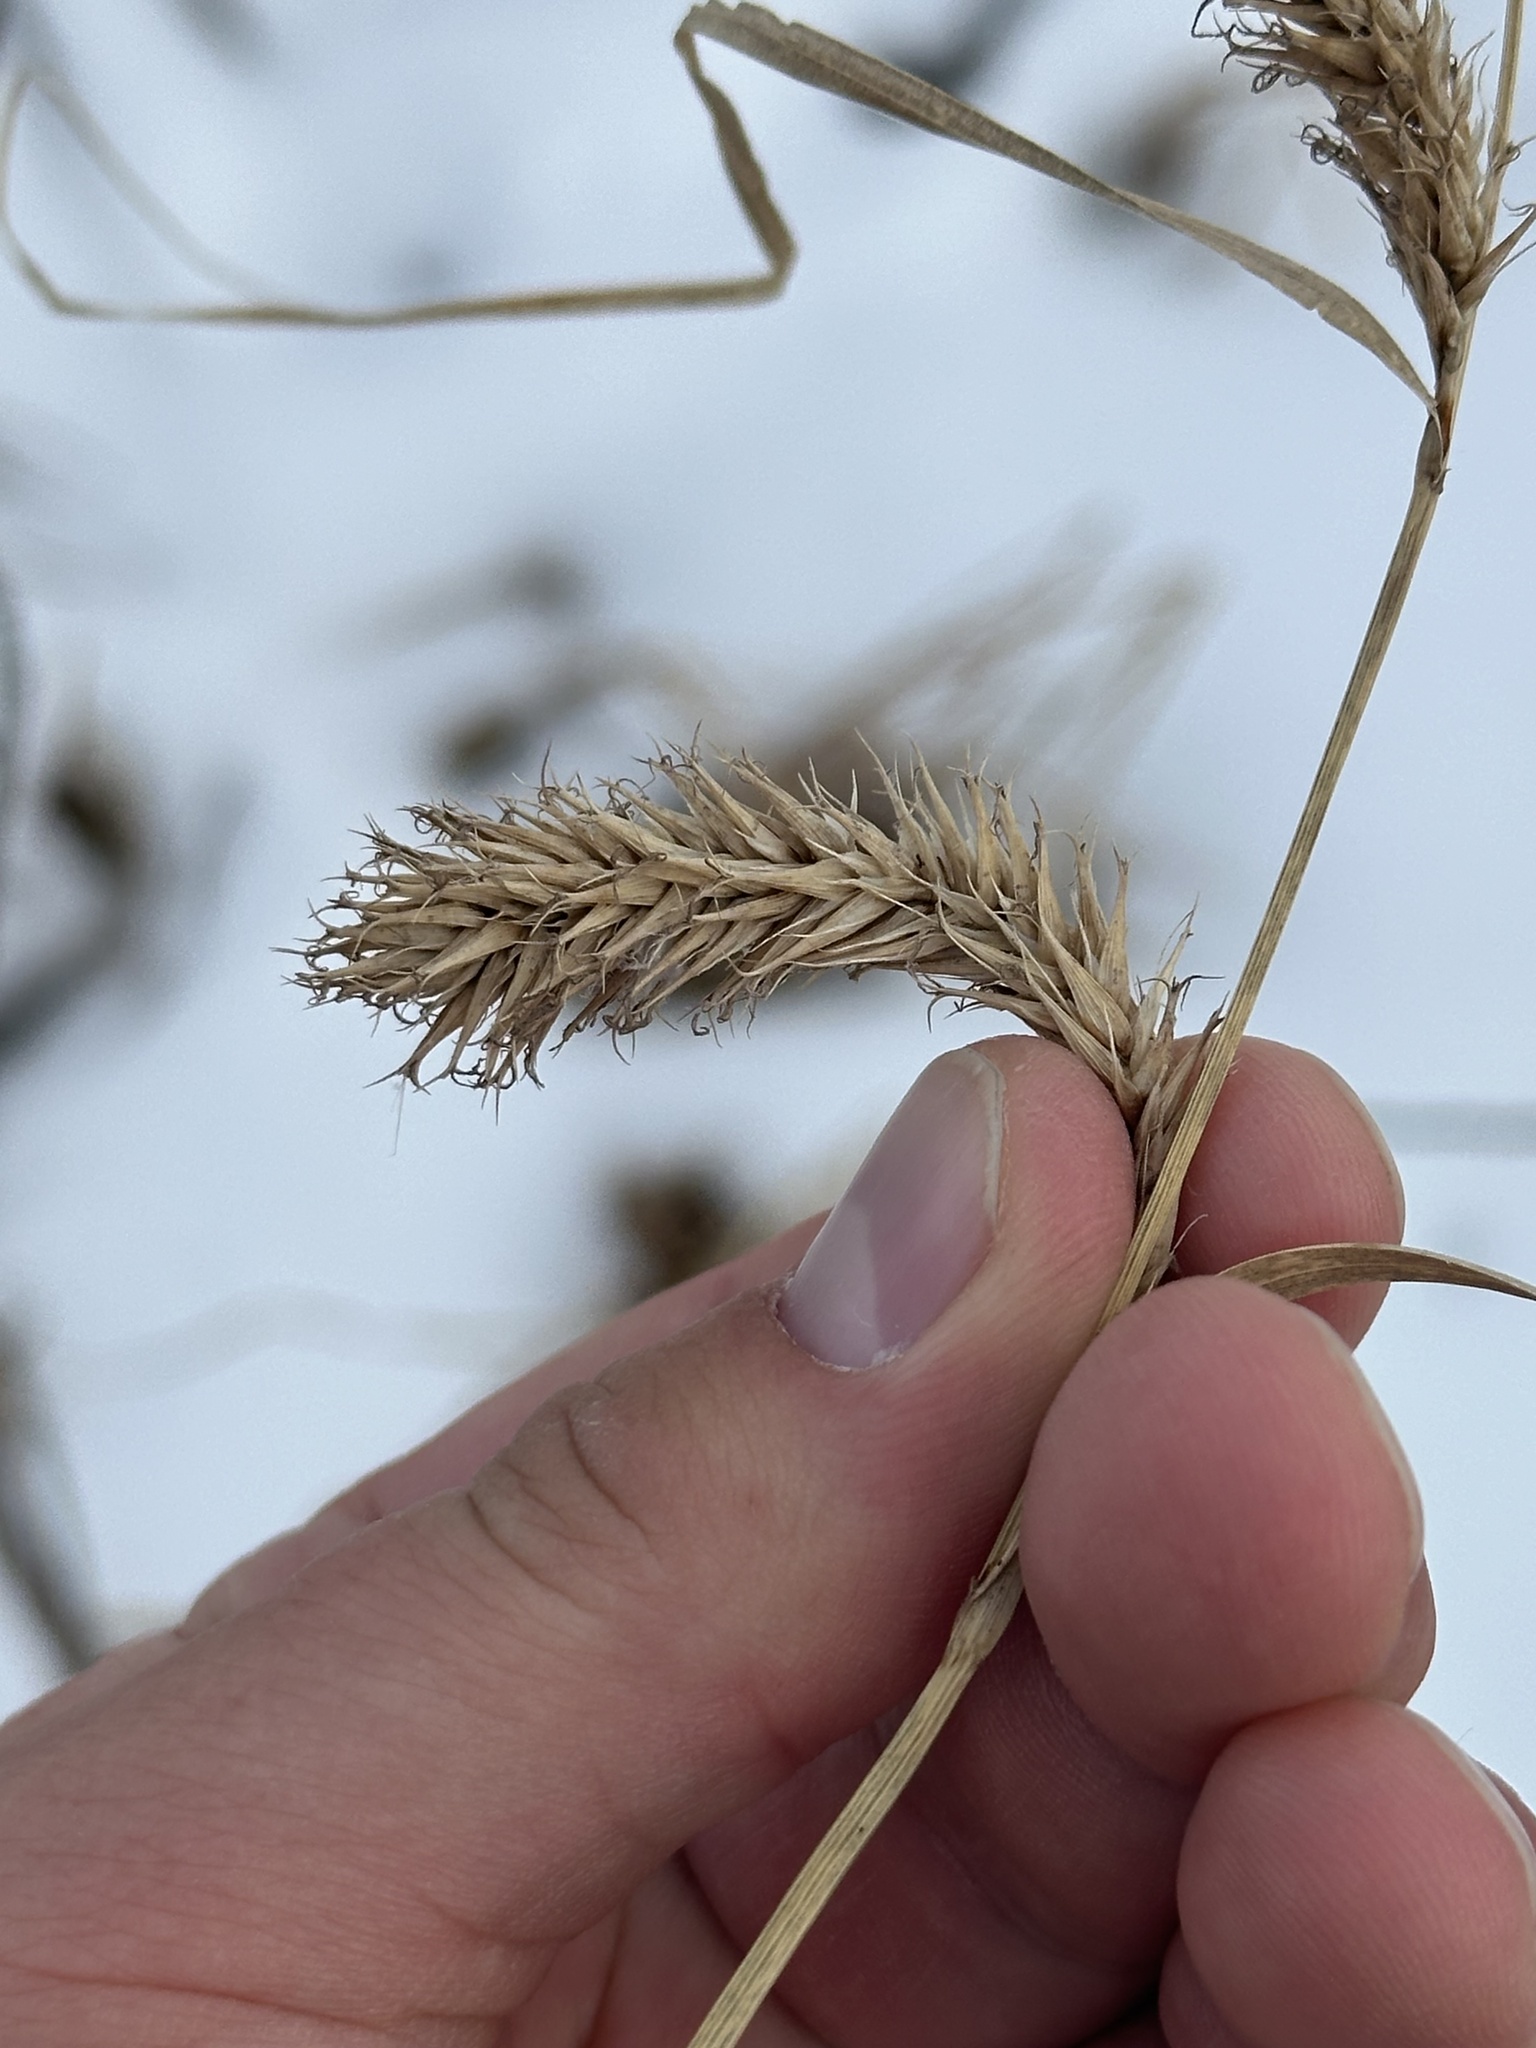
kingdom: Plantae
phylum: Tracheophyta
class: Liliopsida
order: Poales
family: Cyperaceae
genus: Carex
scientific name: Carex atherodes
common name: Wheat sedge
